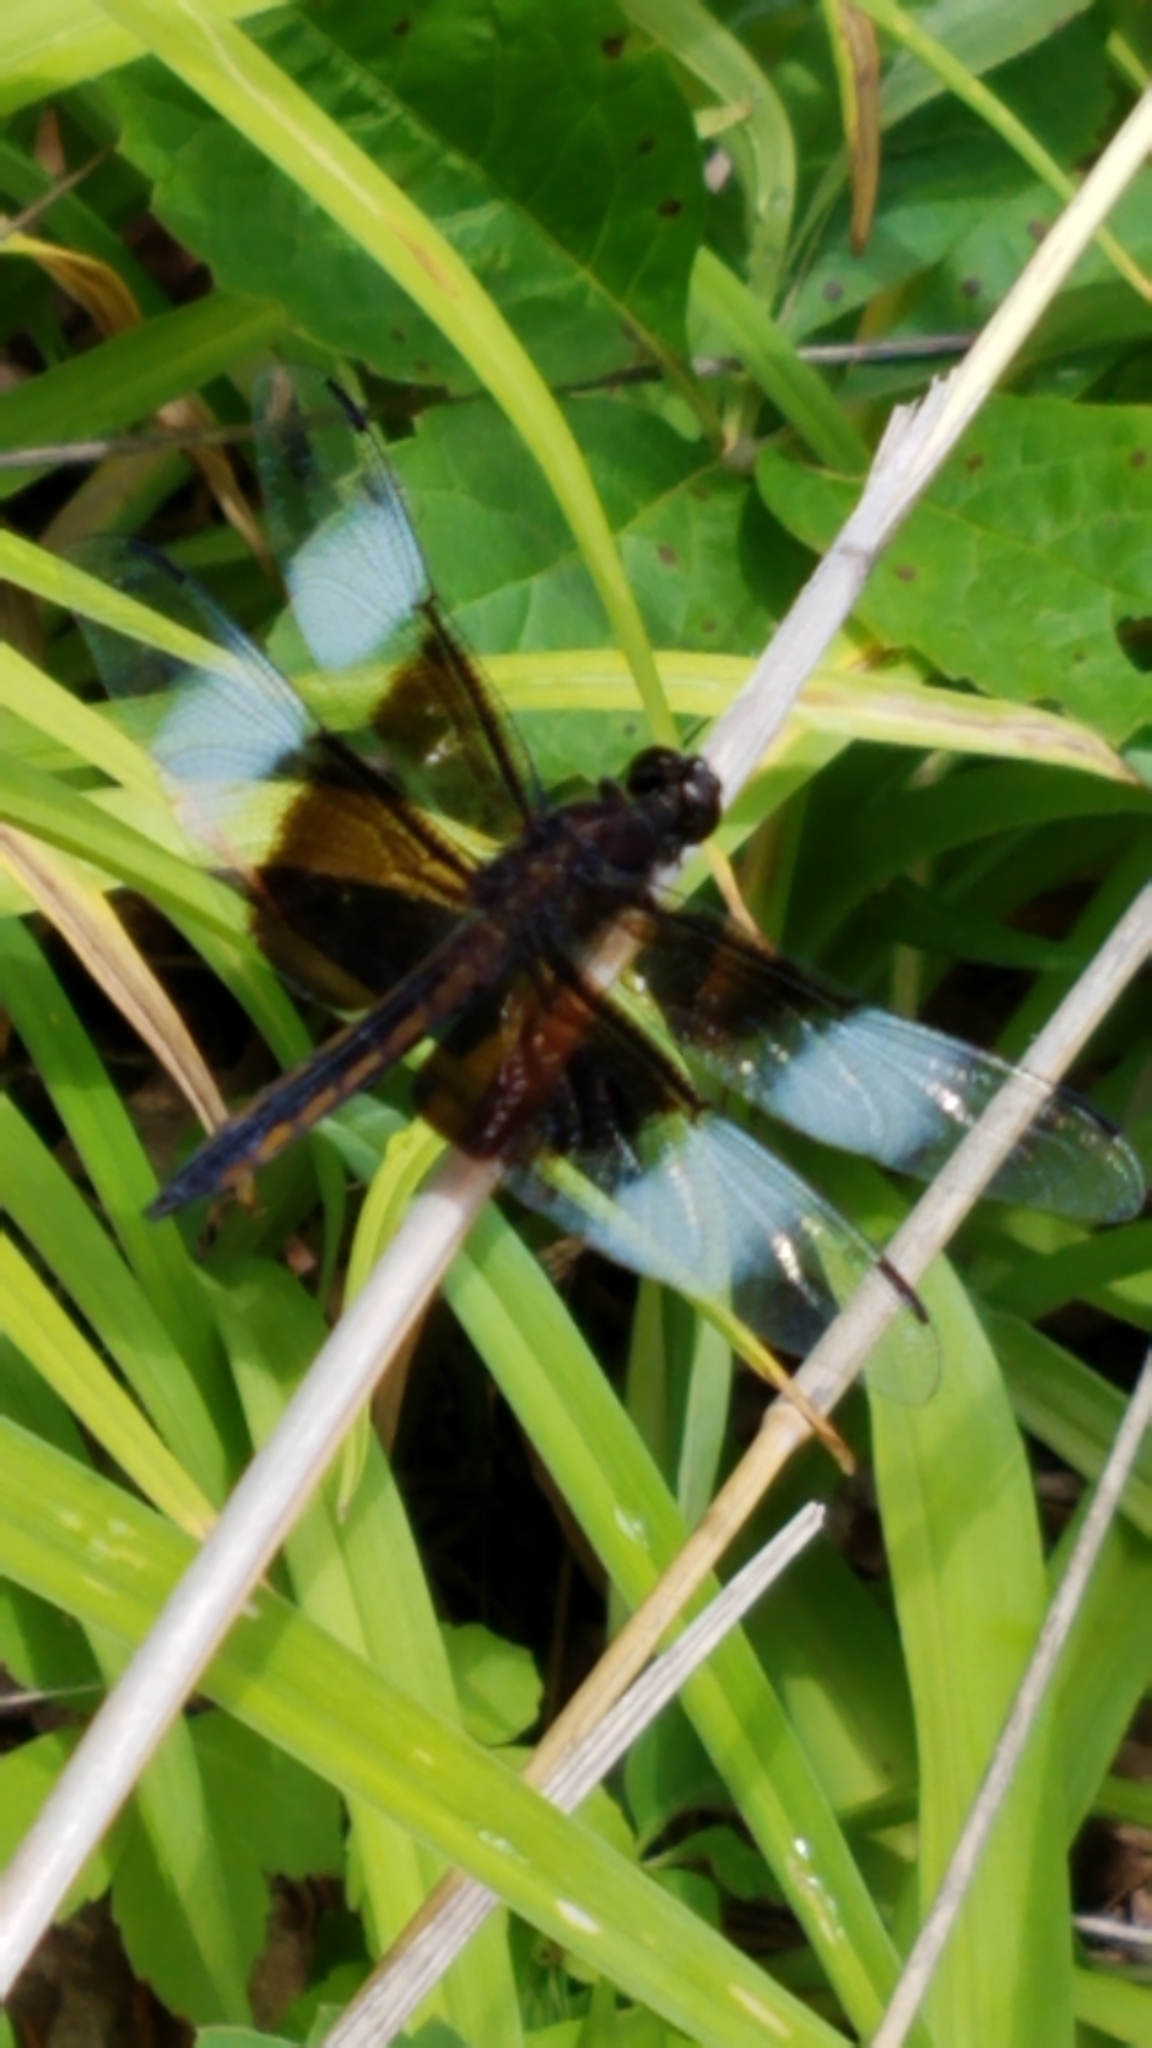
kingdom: Animalia
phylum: Arthropoda
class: Insecta
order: Odonata
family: Libellulidae
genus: Libellula
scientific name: Libellula luctuosa
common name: Widow skimmer
